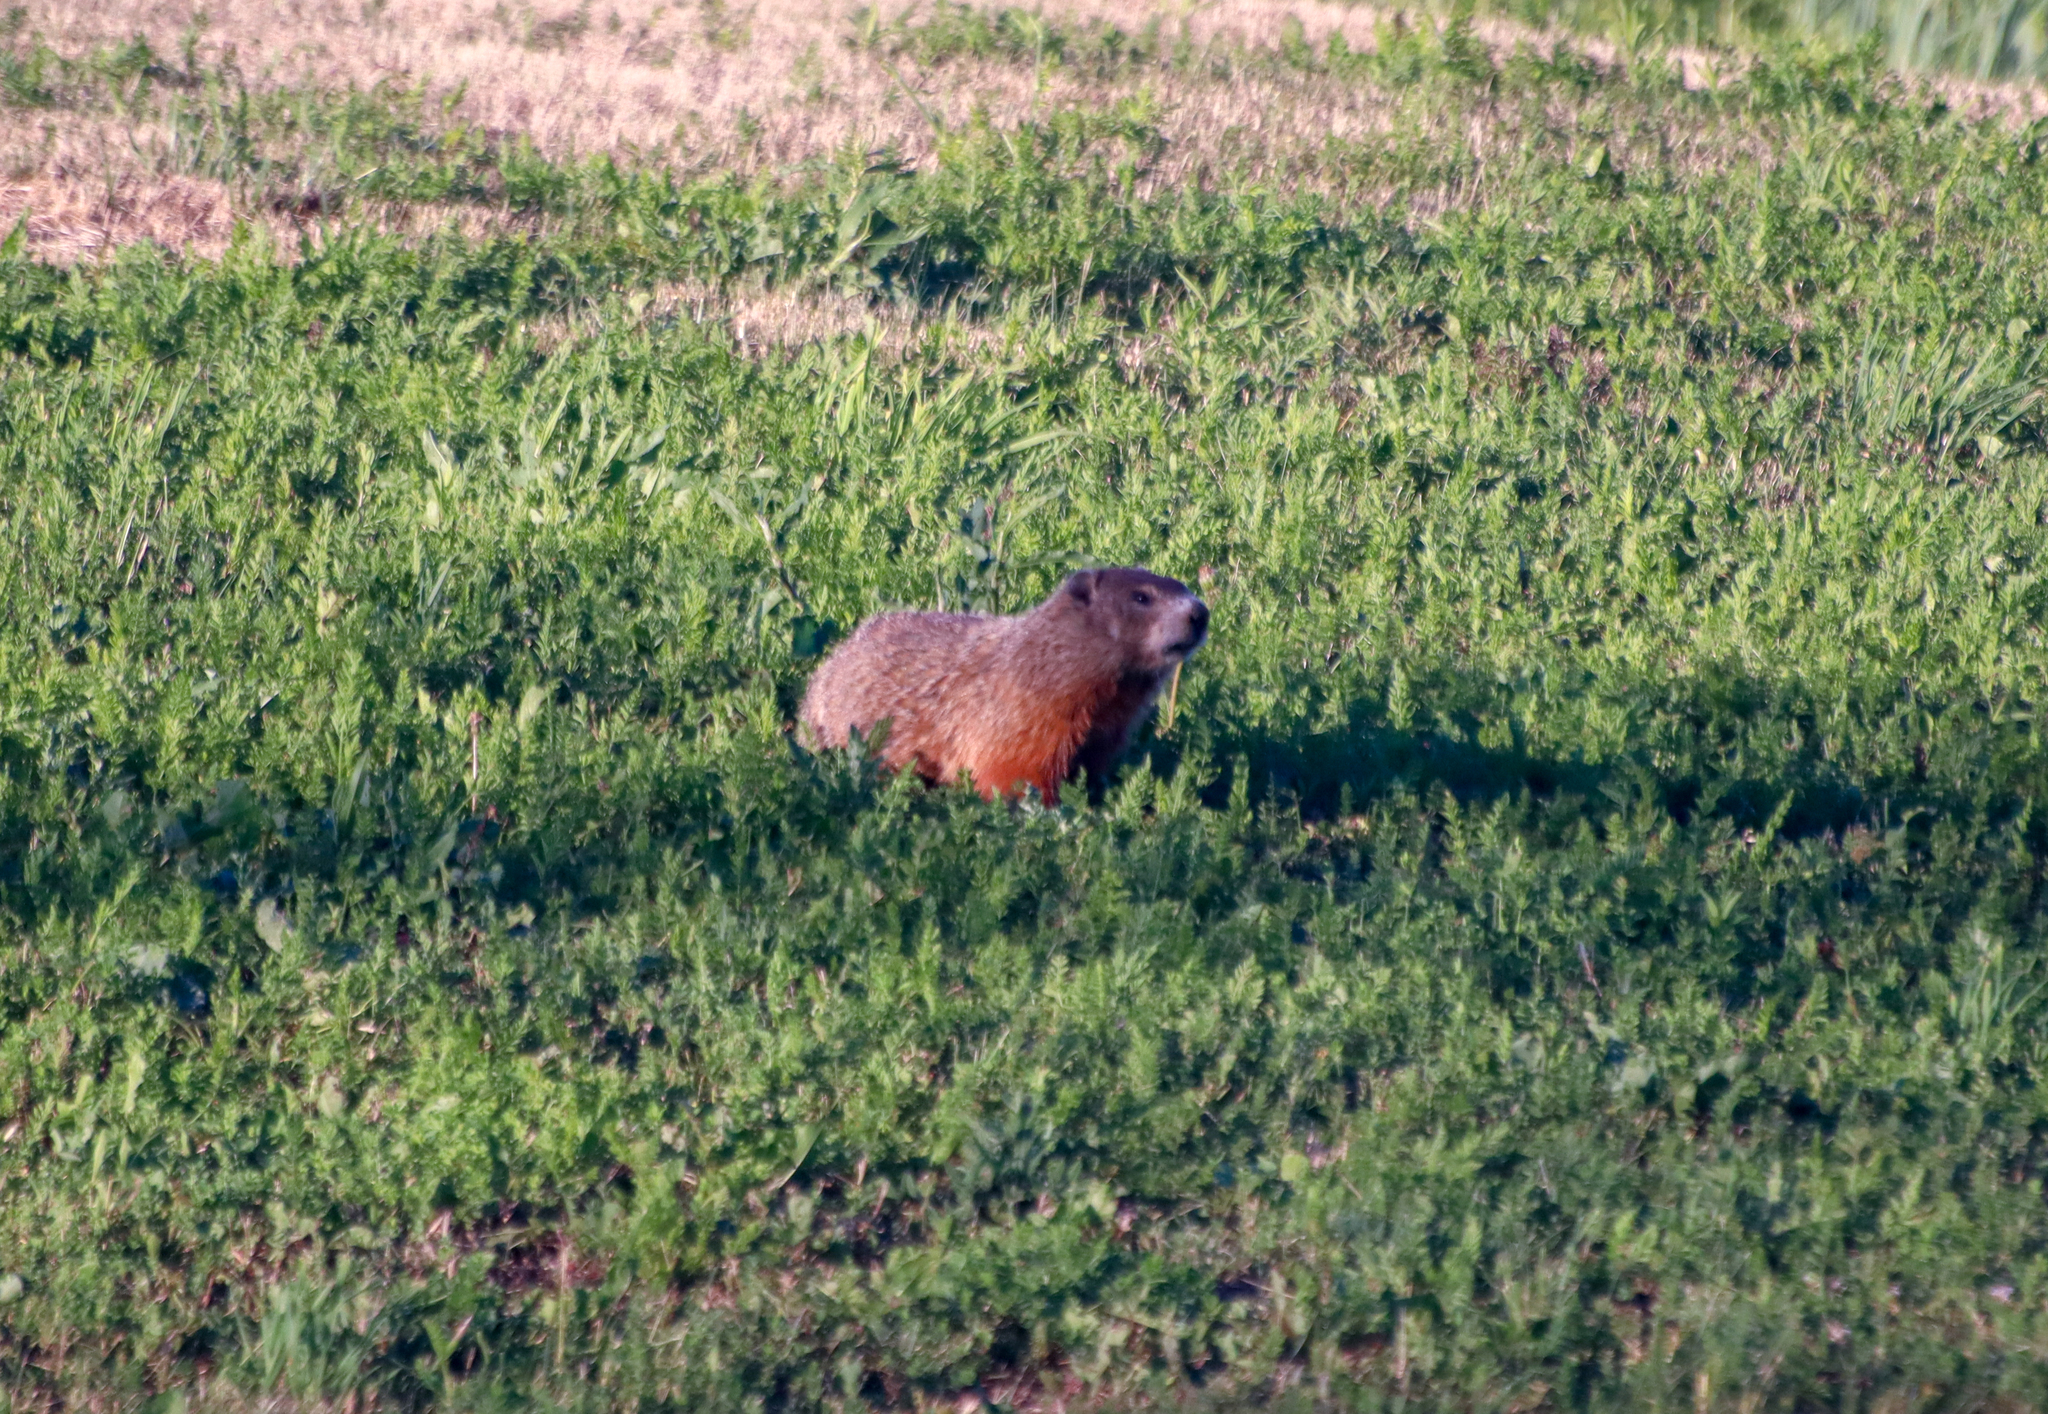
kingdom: Animalia
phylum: Chordata
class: Mammalia
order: Rodentia
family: Sciuridae
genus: Marmota
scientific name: Marmota monax
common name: Groundhog
